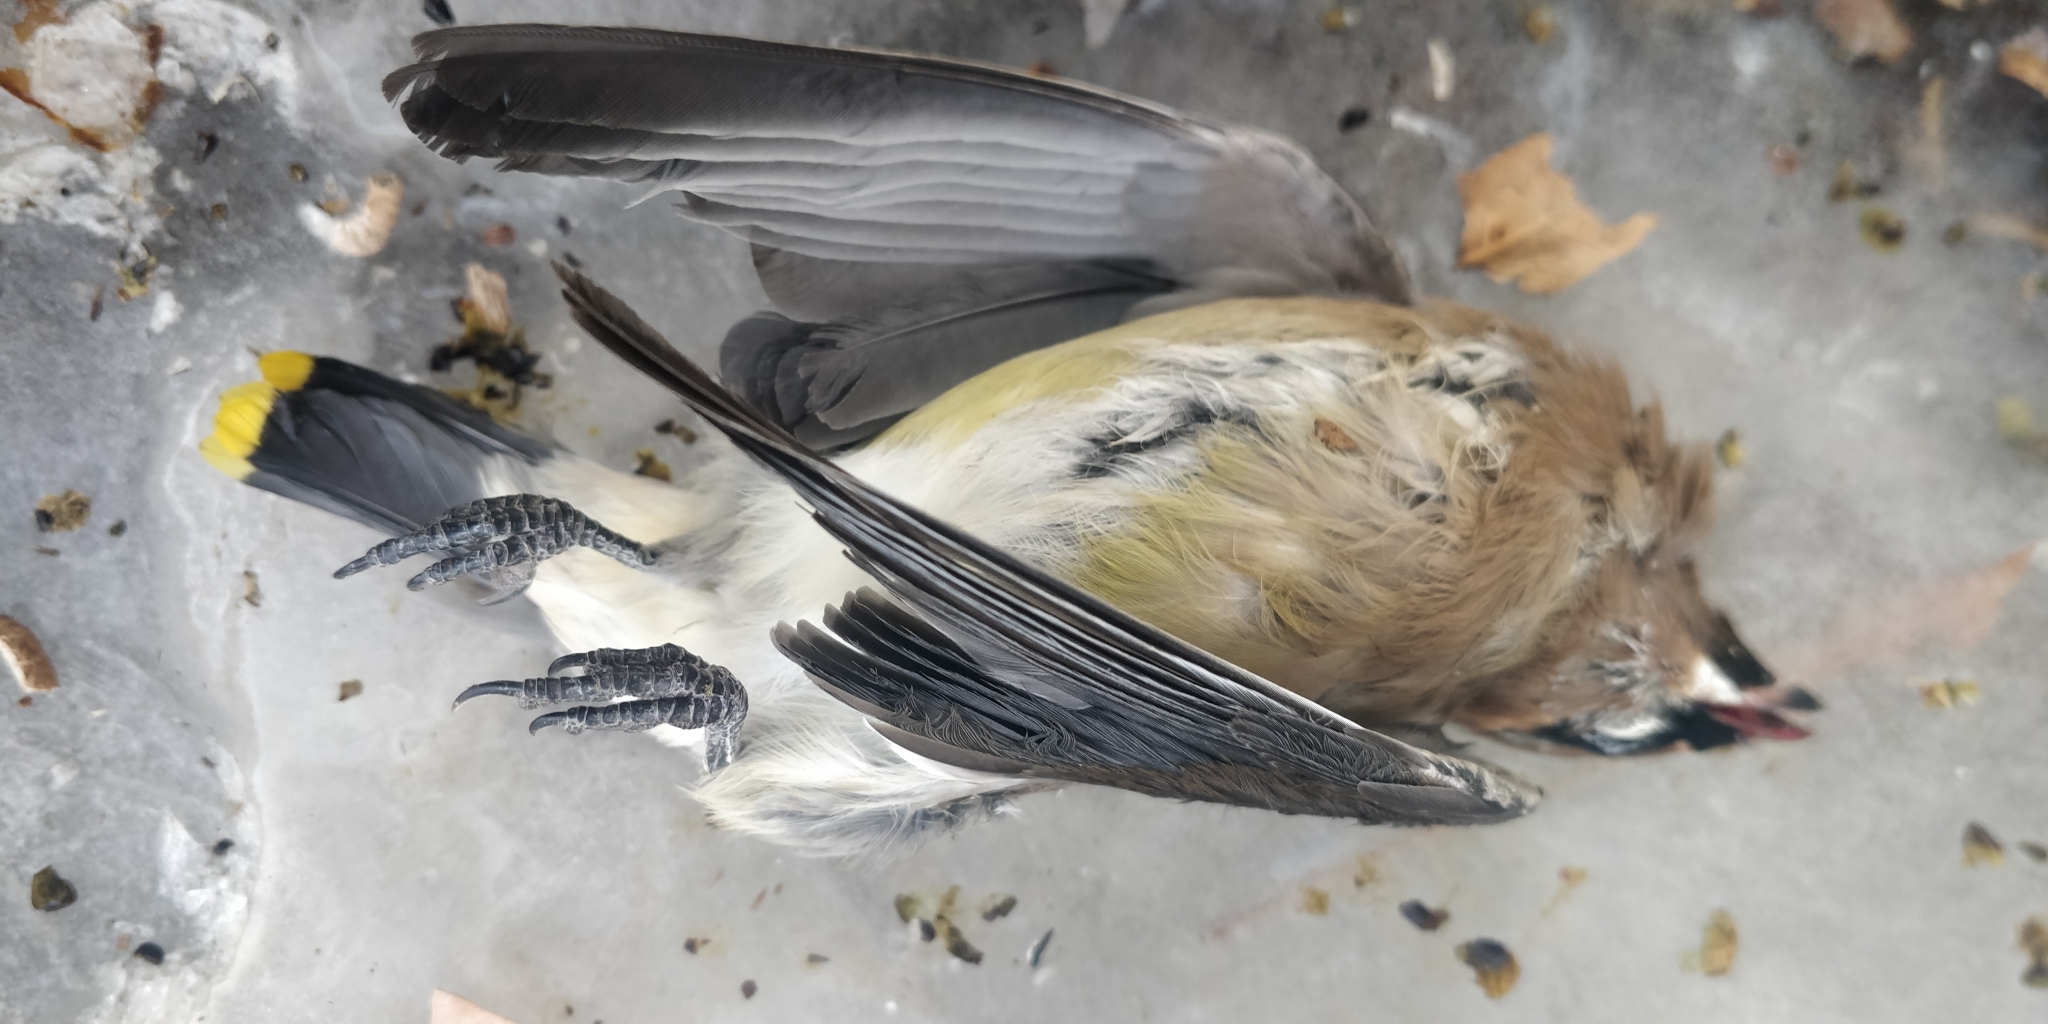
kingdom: Animalia
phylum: Chordata
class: Aves
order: Passeriformes
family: Bombycillidae
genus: Bombycilla
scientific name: Bombycilla cedrorum
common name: Cedar waxwing
